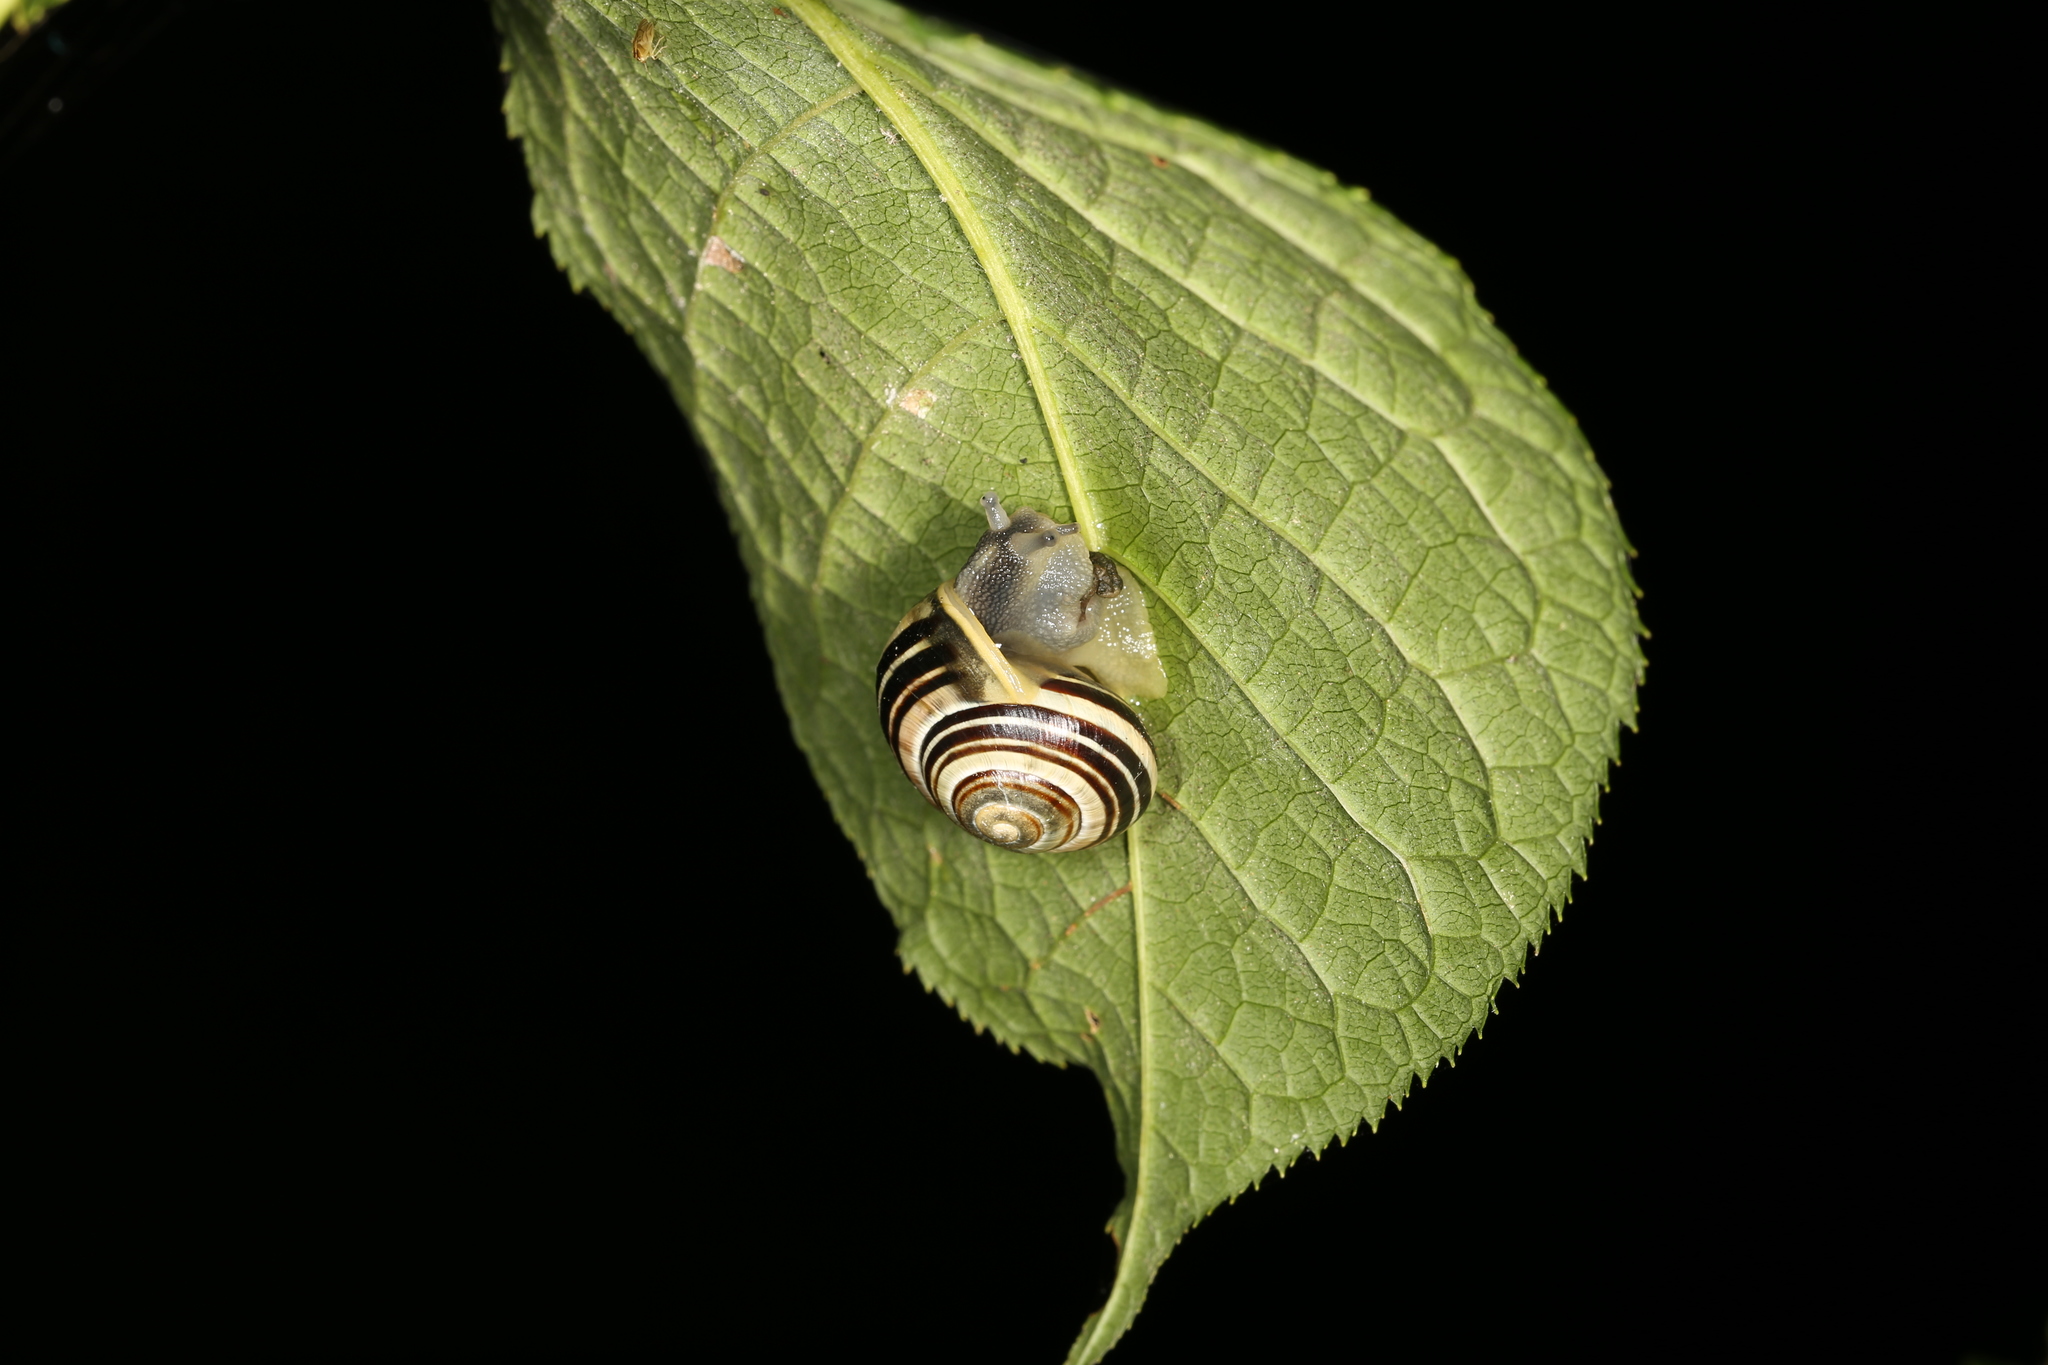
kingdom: Animalia
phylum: Mollusca
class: Gastropoda
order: Stylommatophora
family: Helicidae
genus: Cepaea
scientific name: Cepaea hortensis
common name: White-lip gardensnail
